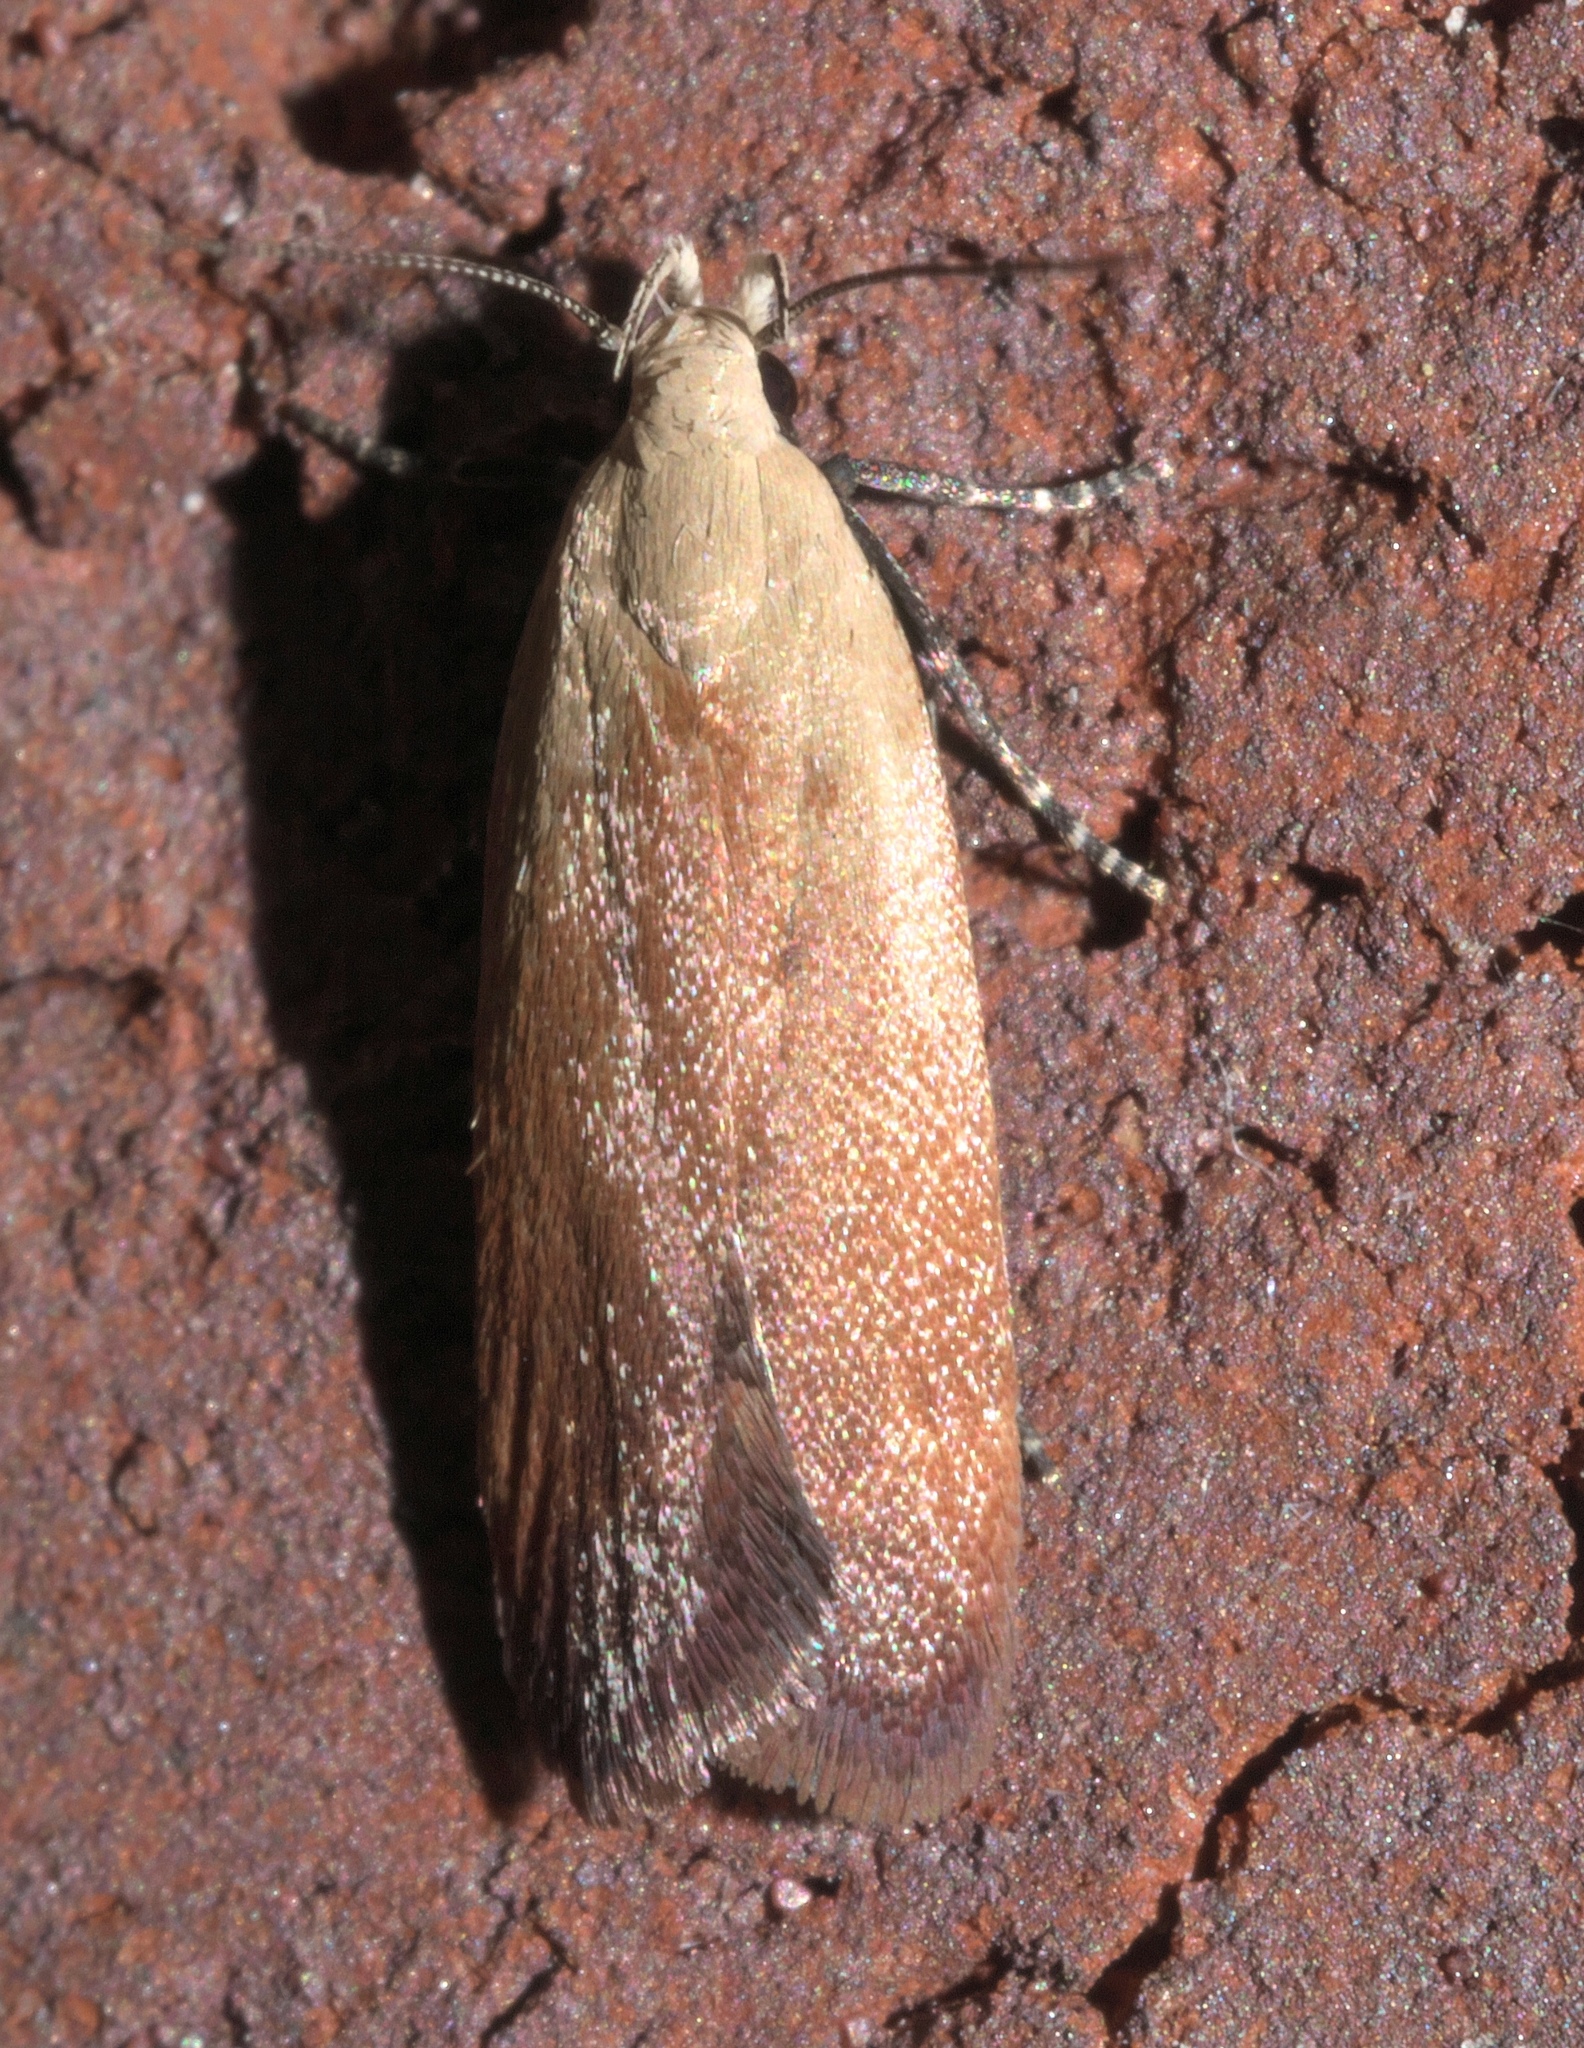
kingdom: Animalia
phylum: Arthropoda
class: Insecta
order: Lepidoptera
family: Gelechiidae
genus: Anacampsis
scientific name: Anacampsis fullonella
